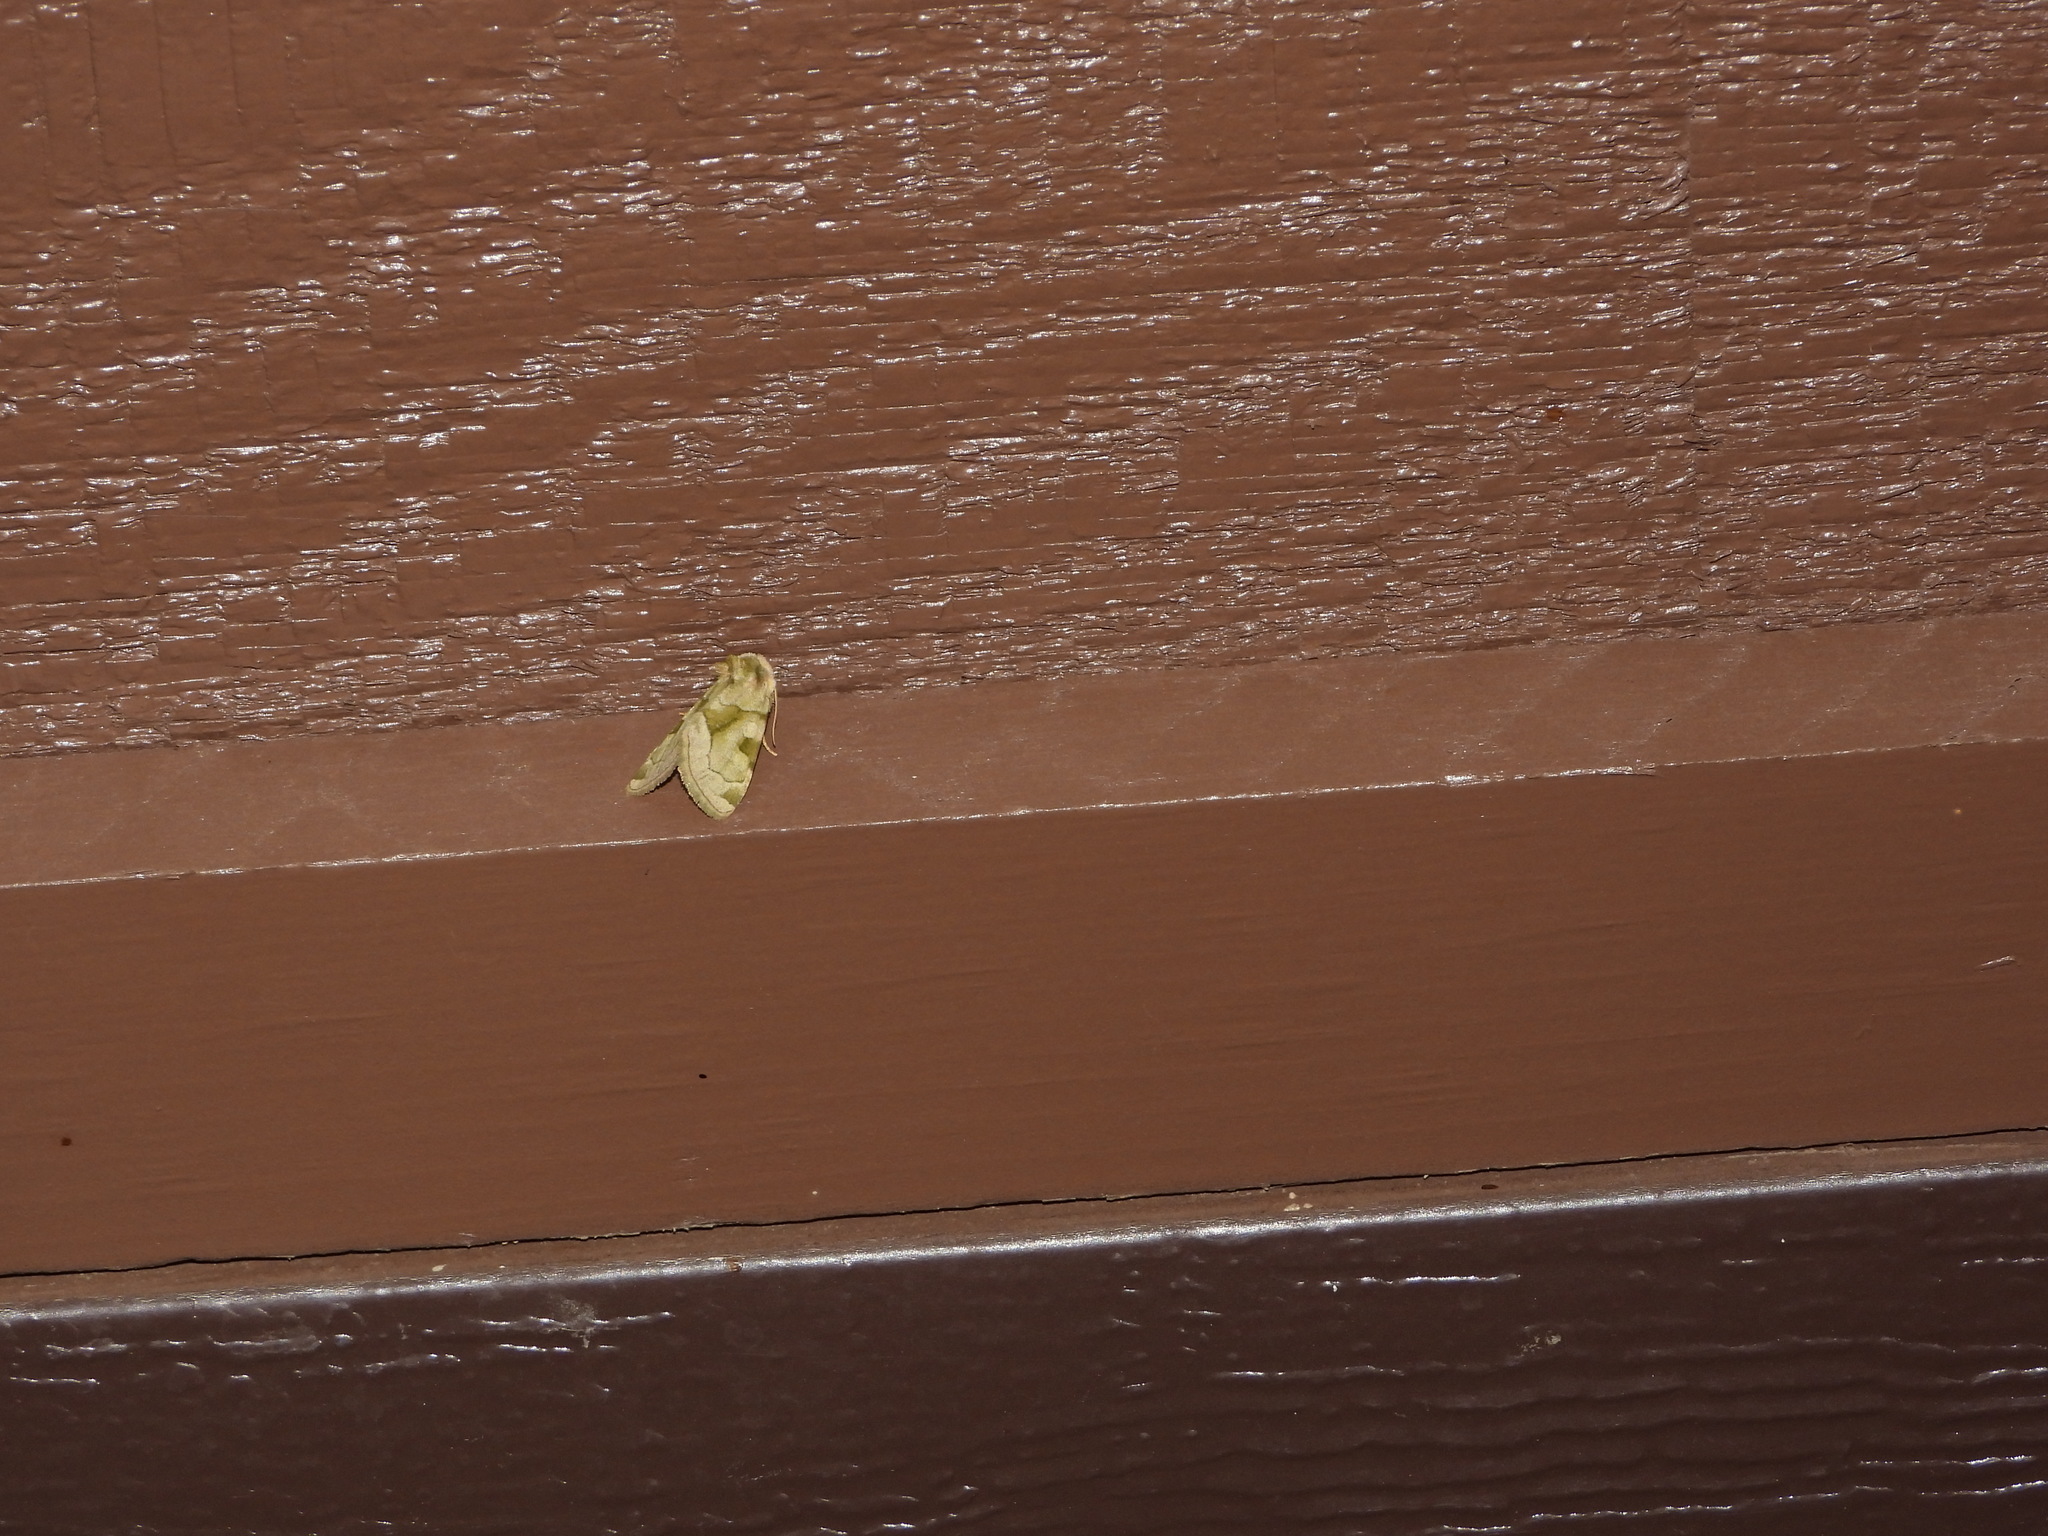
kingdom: Animalia
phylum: Arthropoda
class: Insecta
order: Lepidoptera
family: Noctuidae
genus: Oslaria
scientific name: Oslaria viridifera
